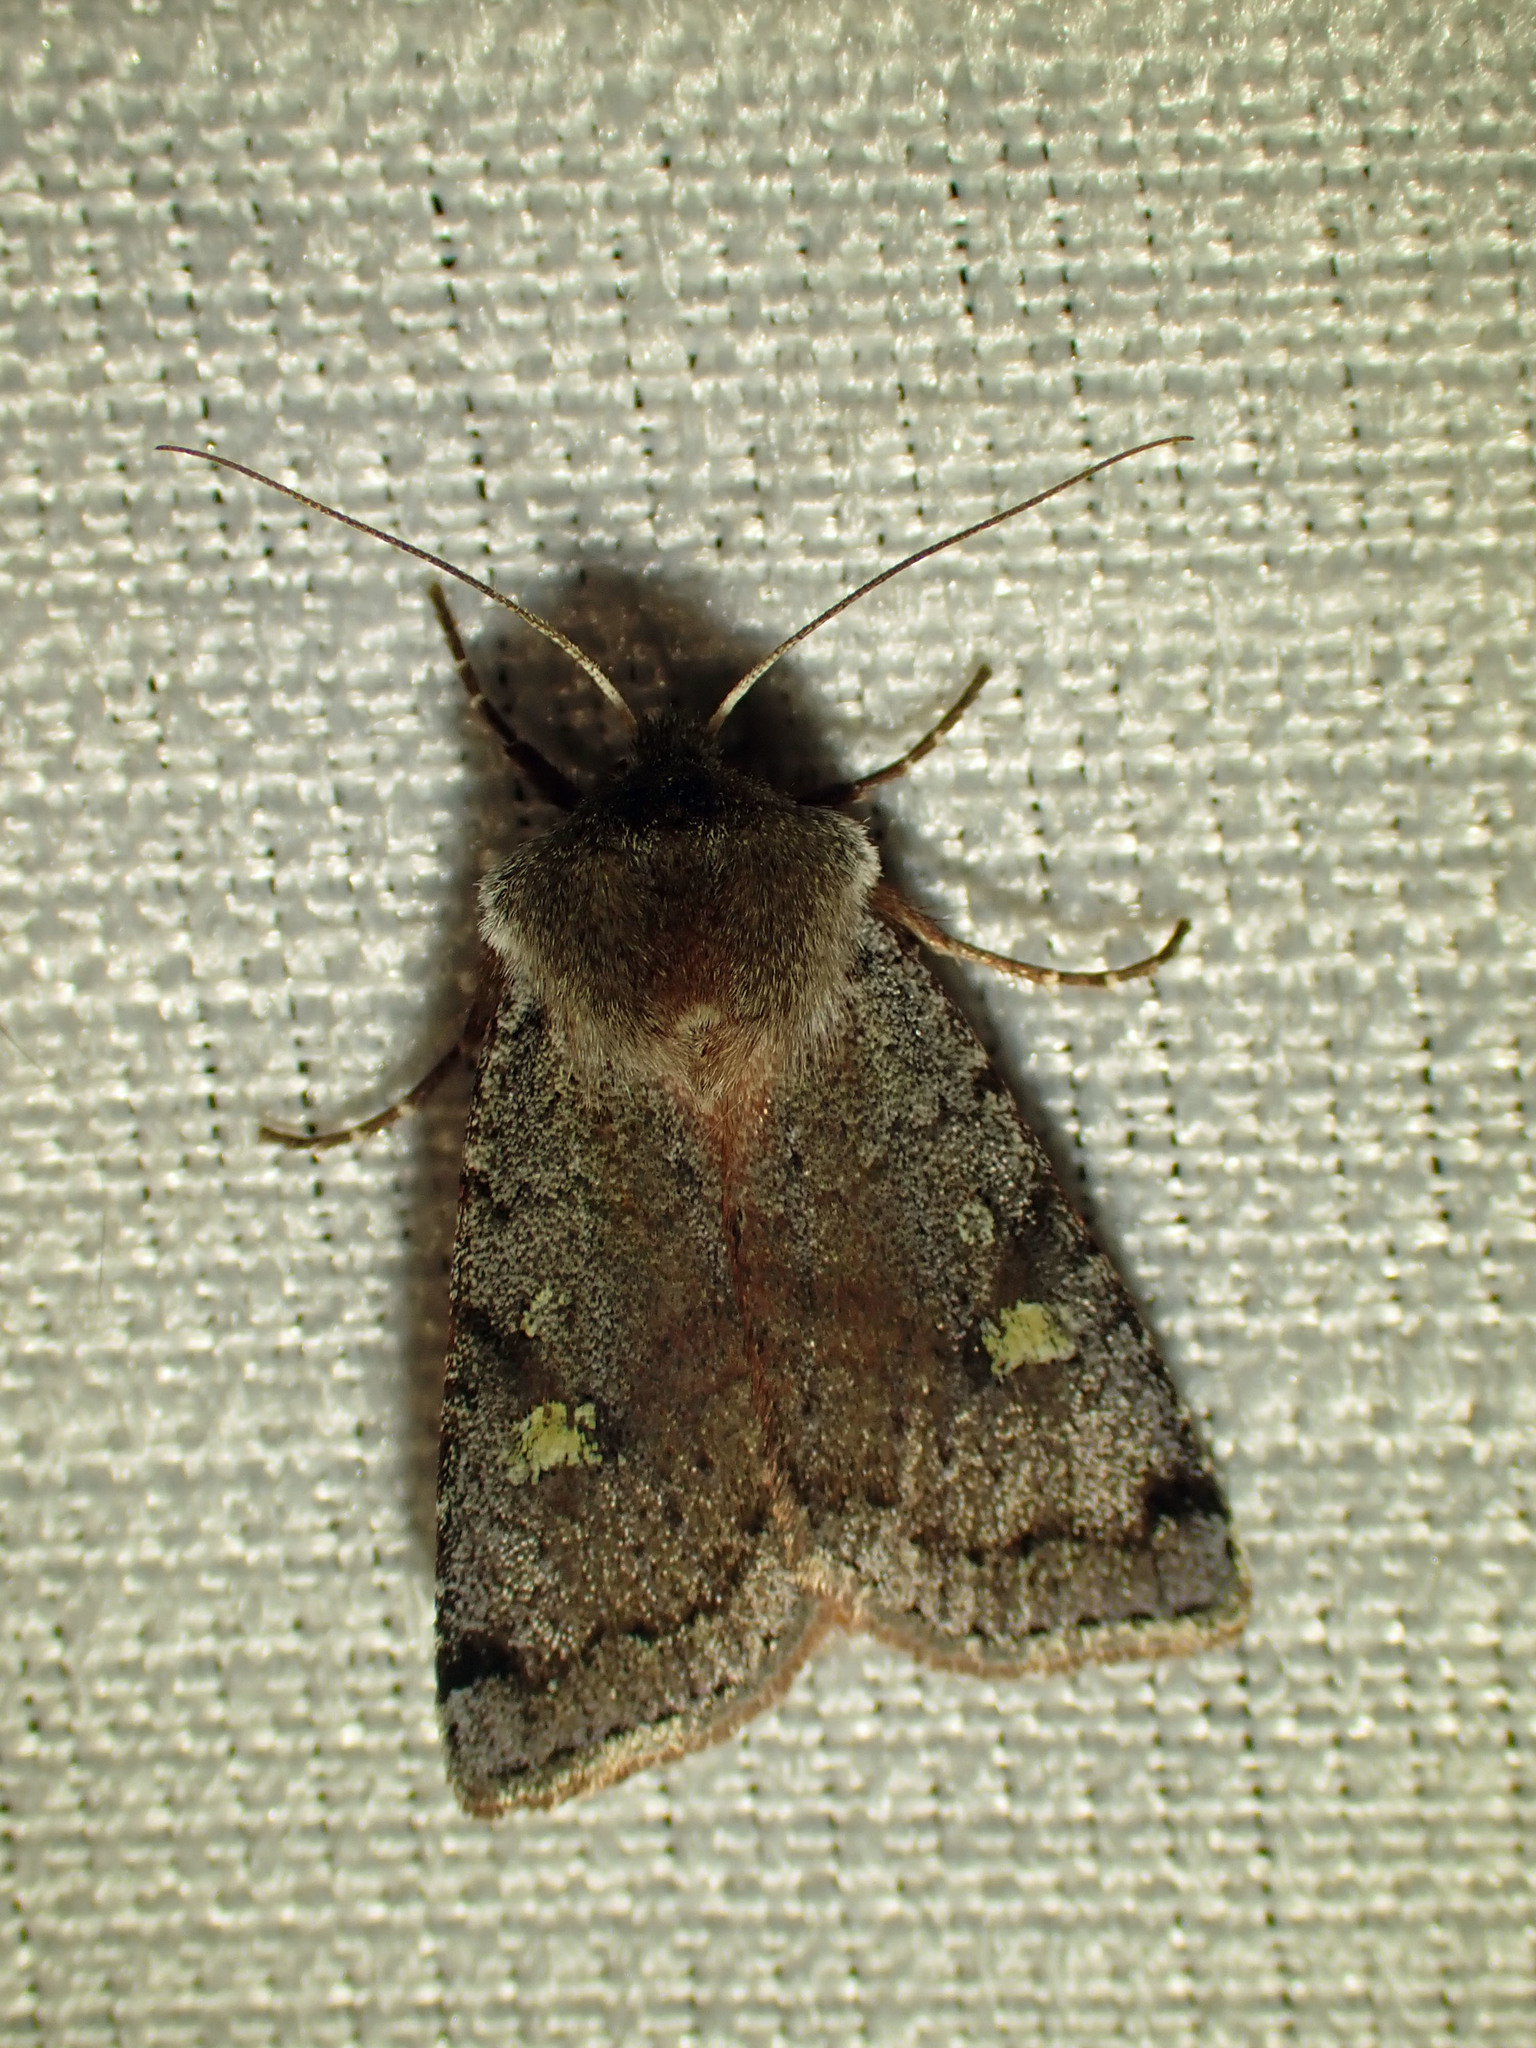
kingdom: Animalia
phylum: Arthropoda
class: Insecta
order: Lepidoptera
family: Noctuidae
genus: Cerastis
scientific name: Cerastis fishii
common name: Fish's dart
